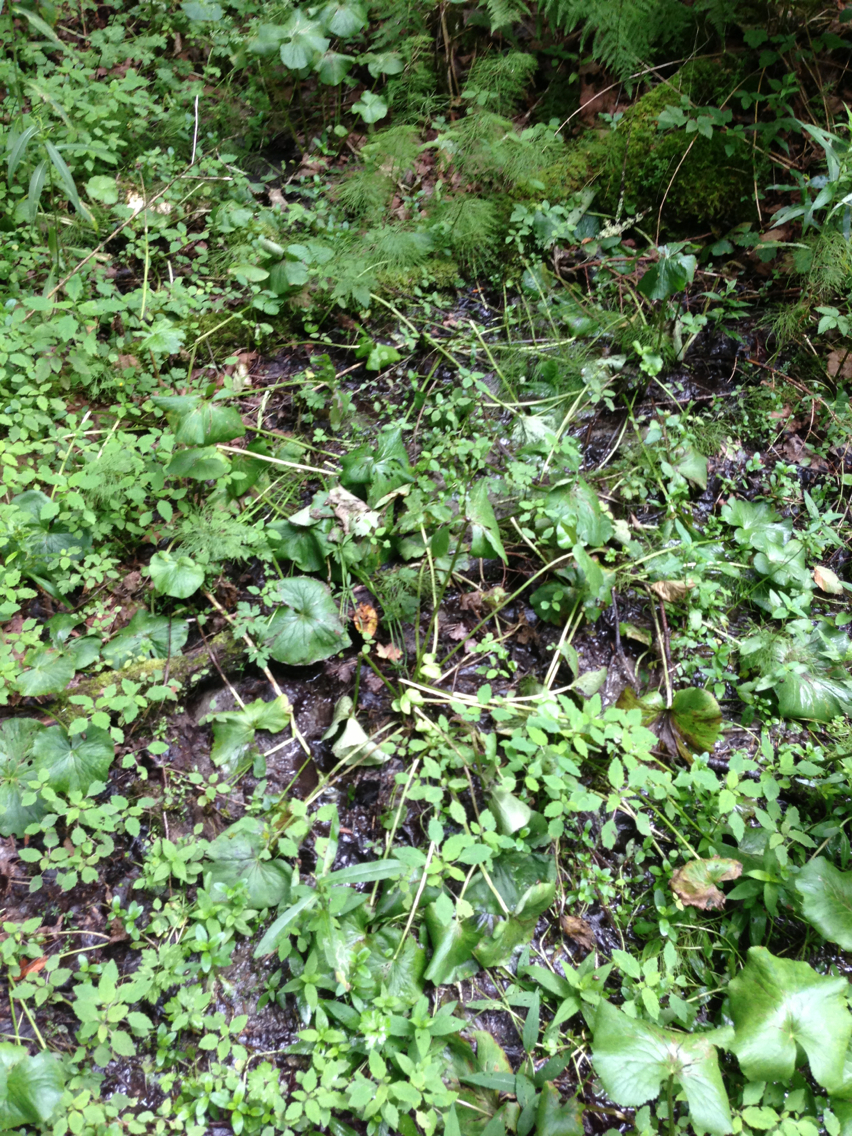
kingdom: Plantae
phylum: Tracheophyta
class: Magnoliopsida
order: Ranunculales
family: Ranunculaceae
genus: Caltha
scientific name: Caltha palustris
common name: Marsh marigold
